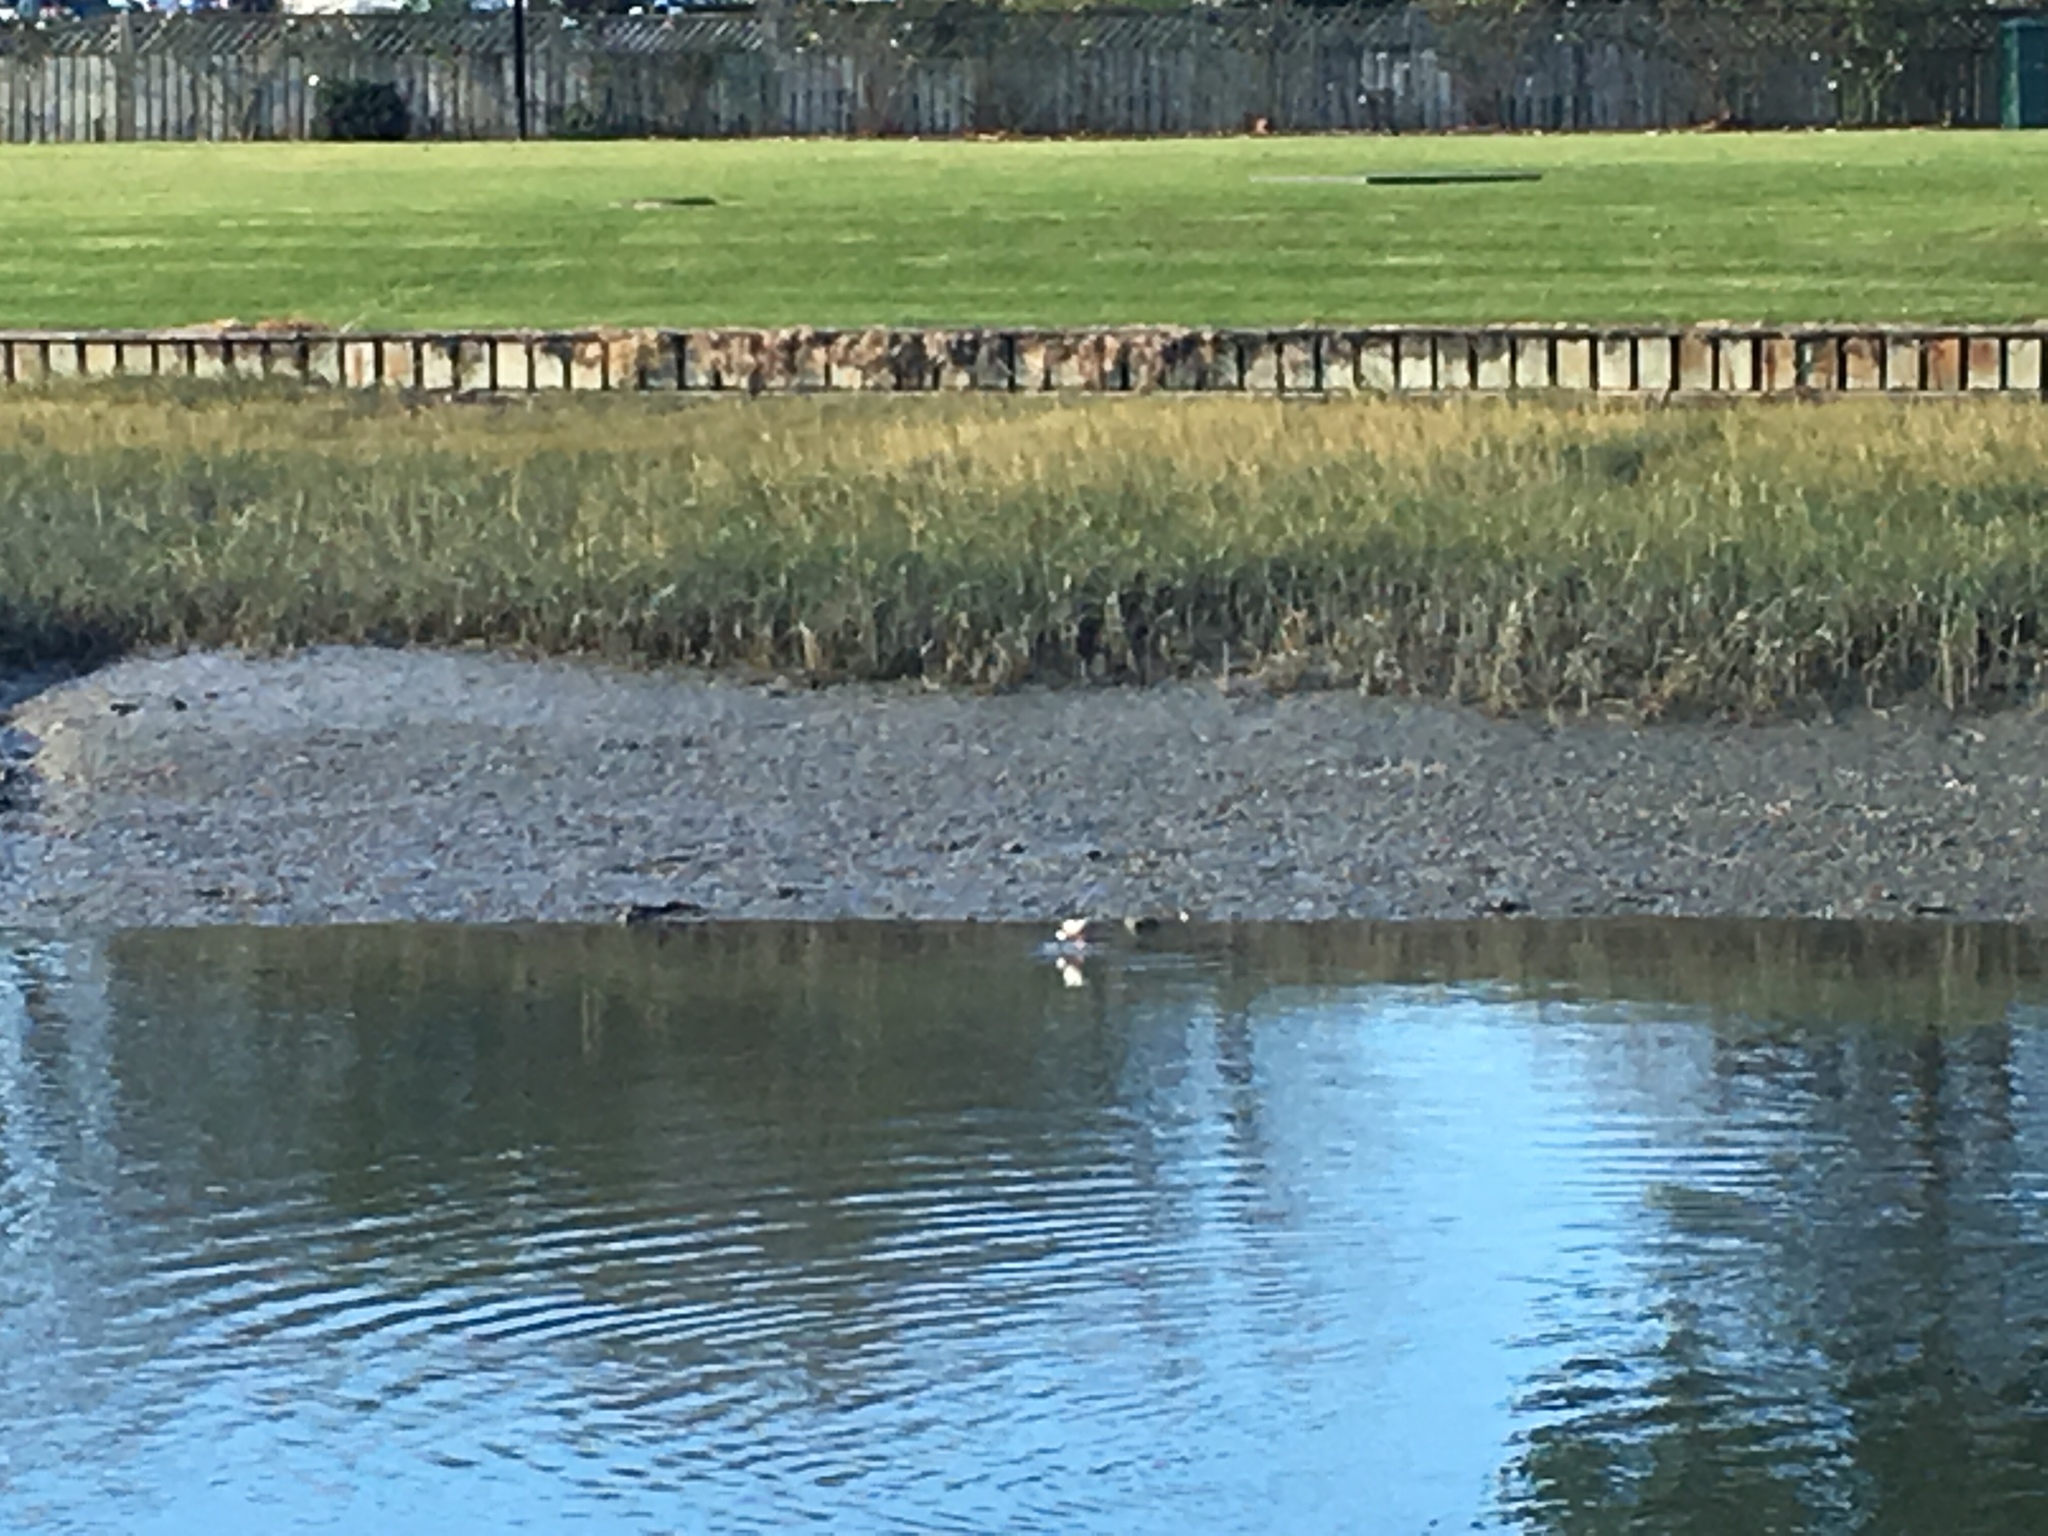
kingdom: Animalia
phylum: Chordata
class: Aves
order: Charadriiformes
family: Recurvirostridae
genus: Himantopus
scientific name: Himantopus leucocephalus
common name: White-headed stilt
